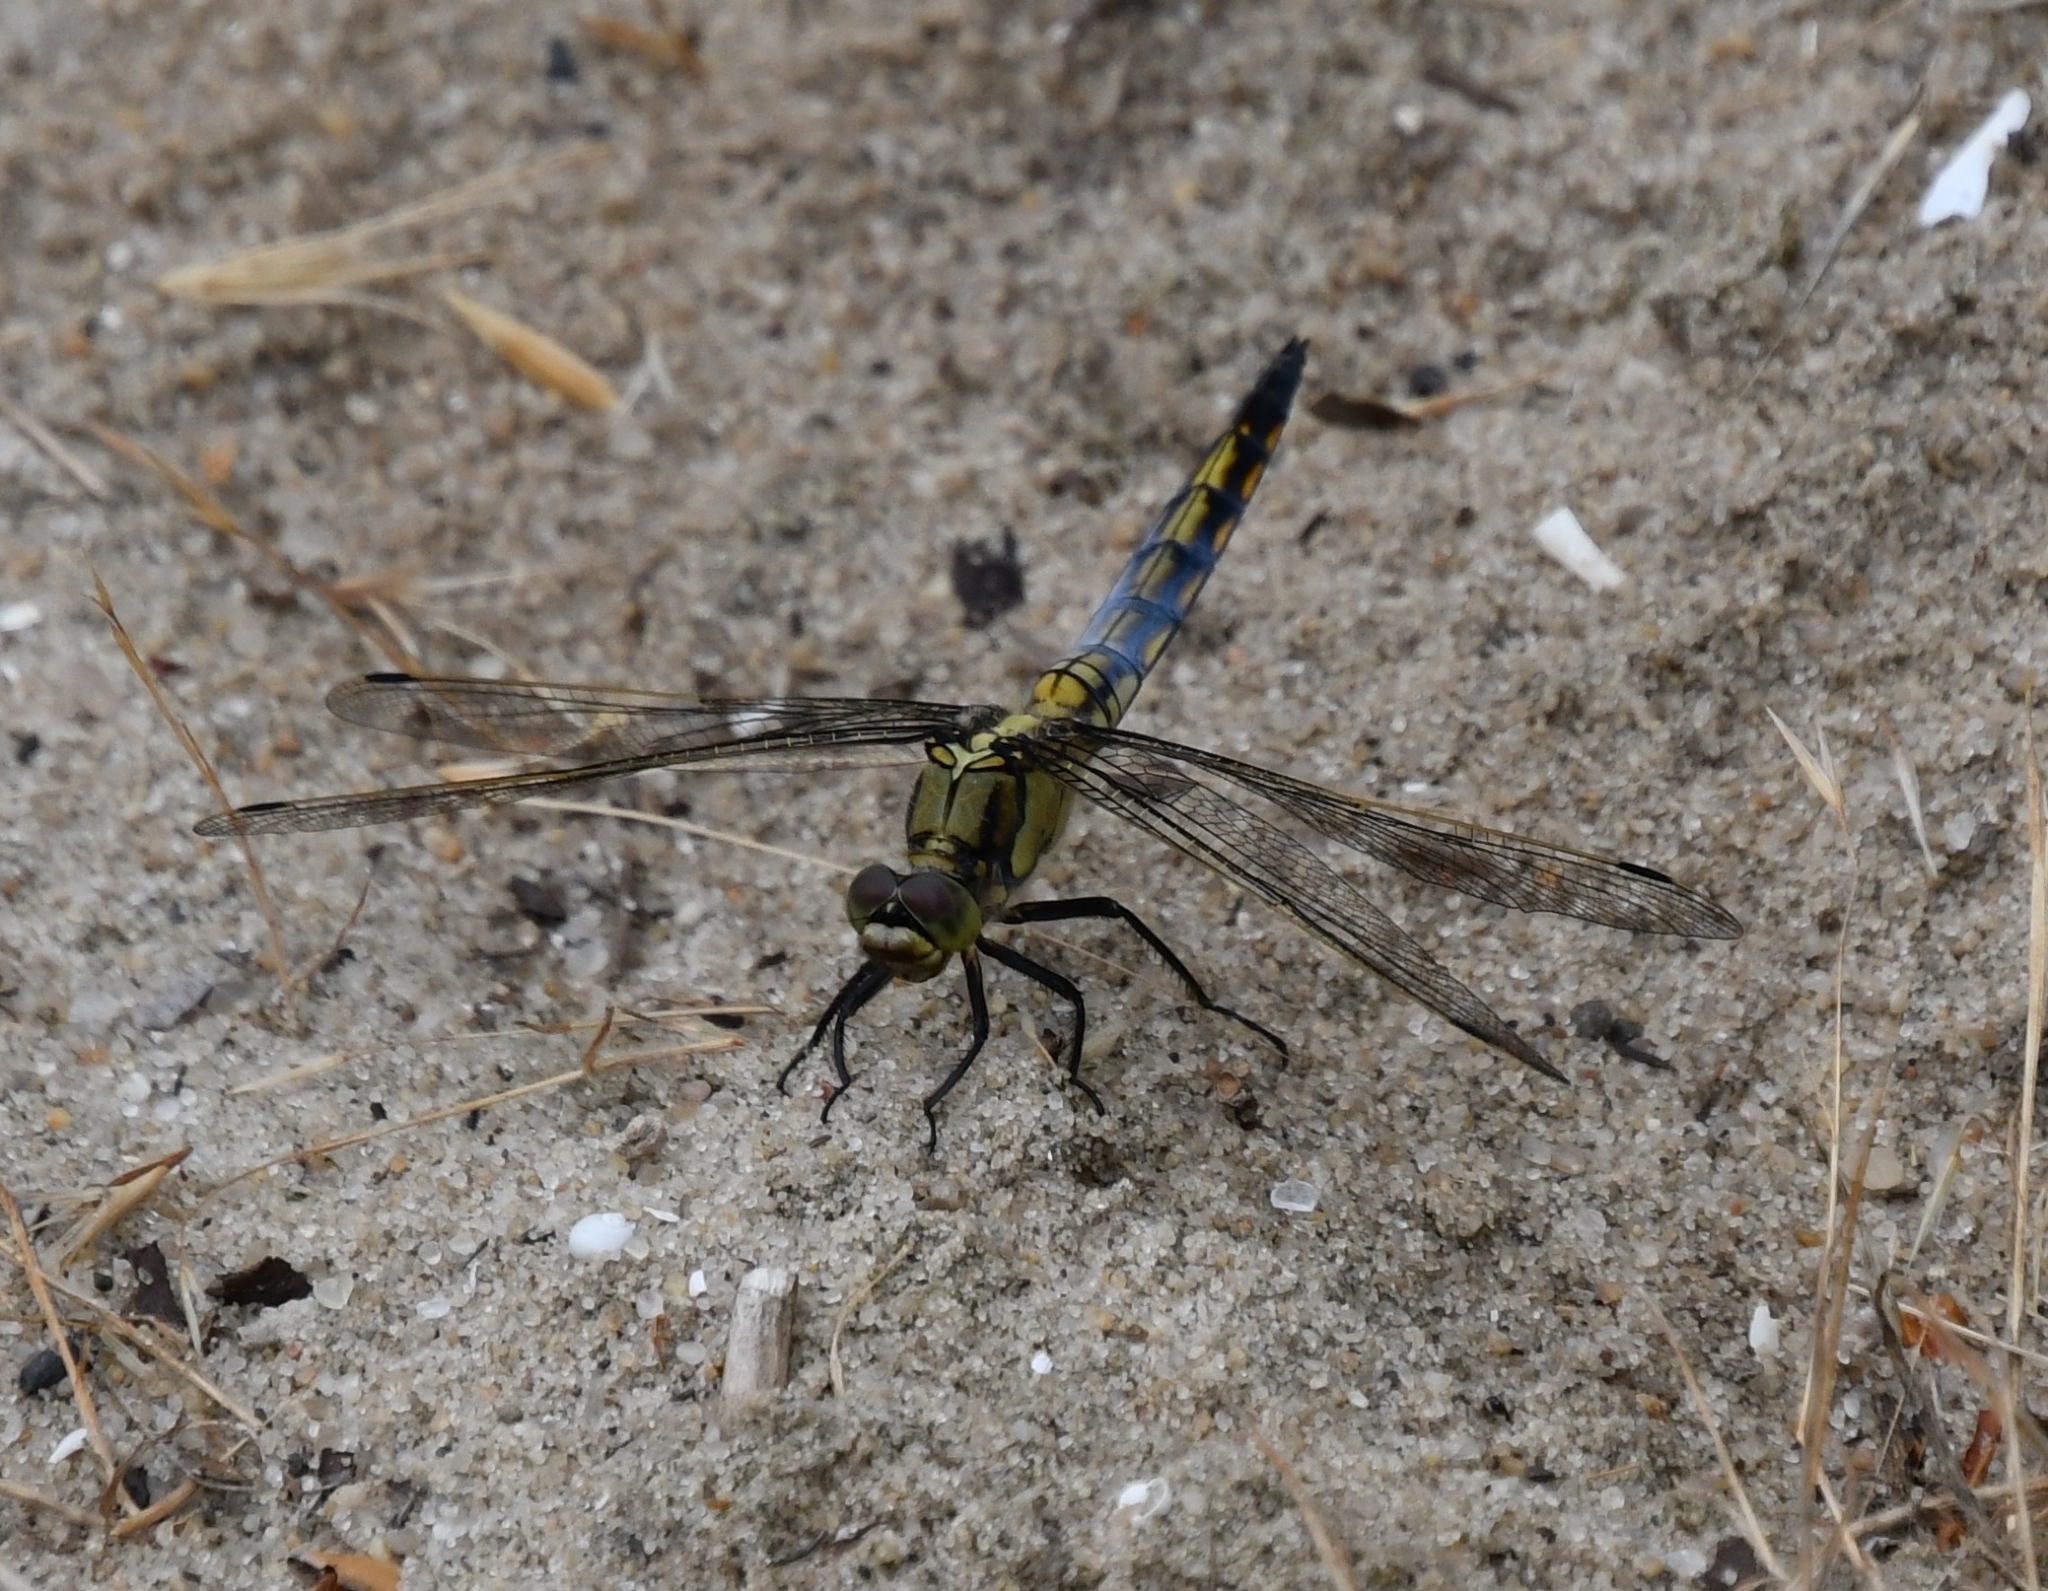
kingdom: Animalia
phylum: Arthropoda
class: Insecta
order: Odonata
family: Libellulidae
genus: Orthetrum
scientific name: Orthetrum cancellatum
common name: Black-tailed skimmer
